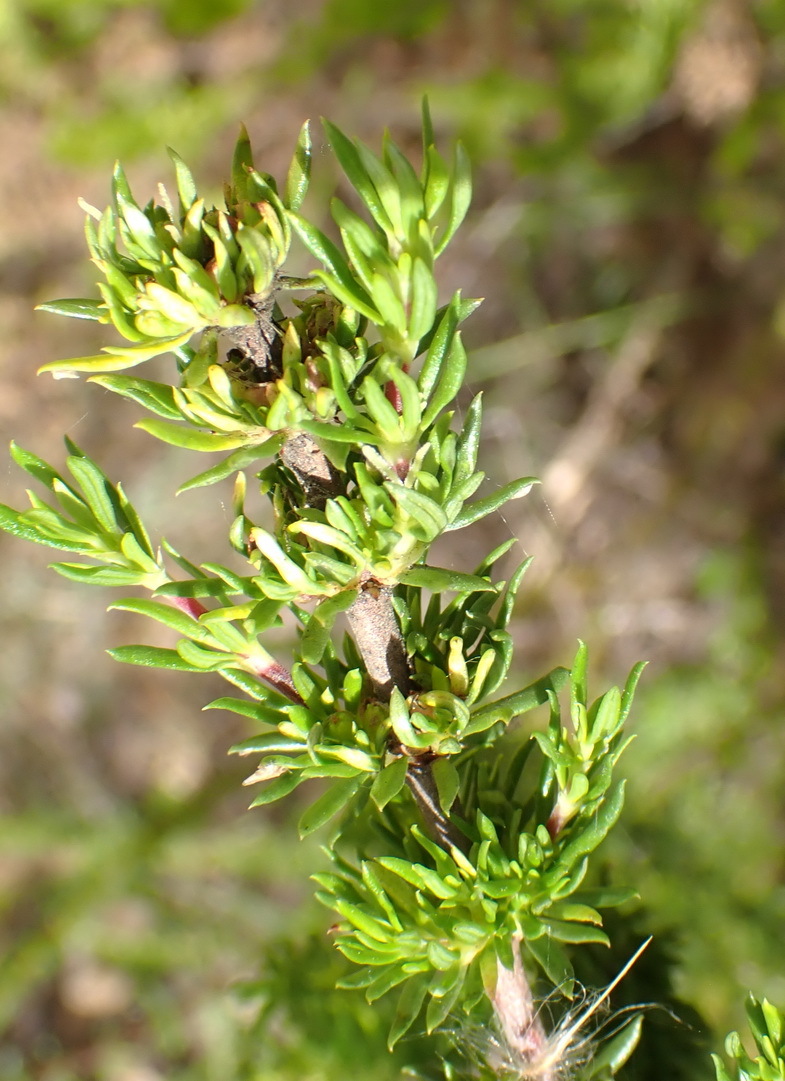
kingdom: Plantae
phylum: Tracheophyta
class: Magnoliopsida
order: Gentianales
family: Rubiaceae
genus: Anthospermum
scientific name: Anthospermum aethiopicum
